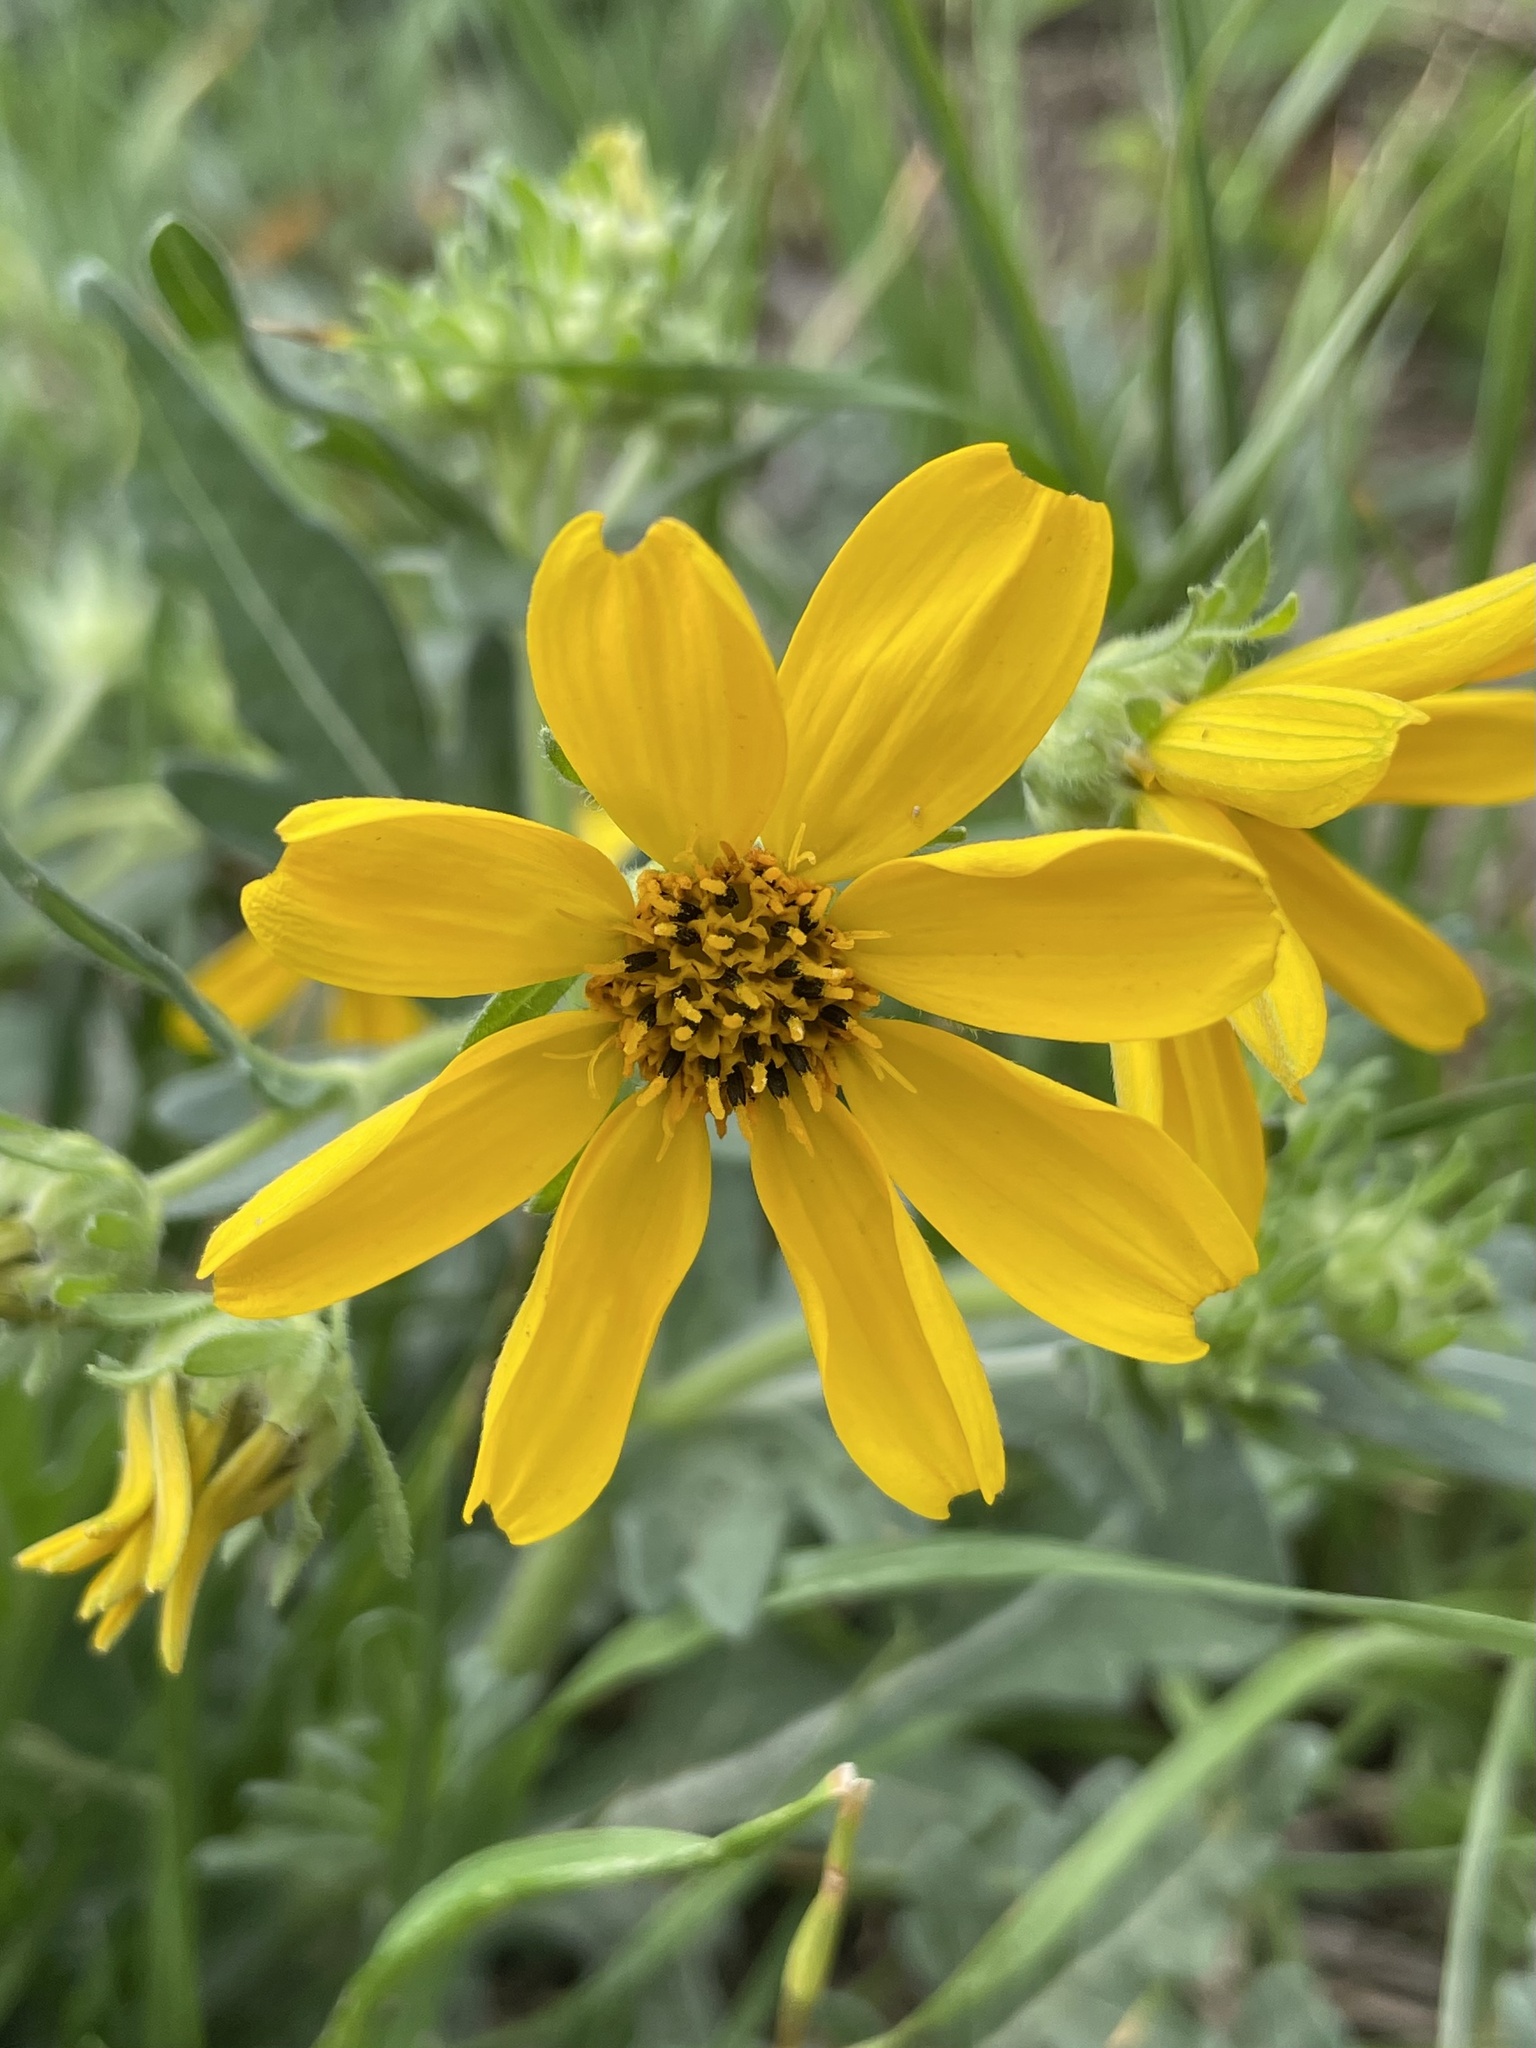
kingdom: Plantae
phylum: Tracheophyta
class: Magnoliopsida
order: Asterales
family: Asteraceae
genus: Engelmannia
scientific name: Engelmannia peristenia
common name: Engelmann's daisy
